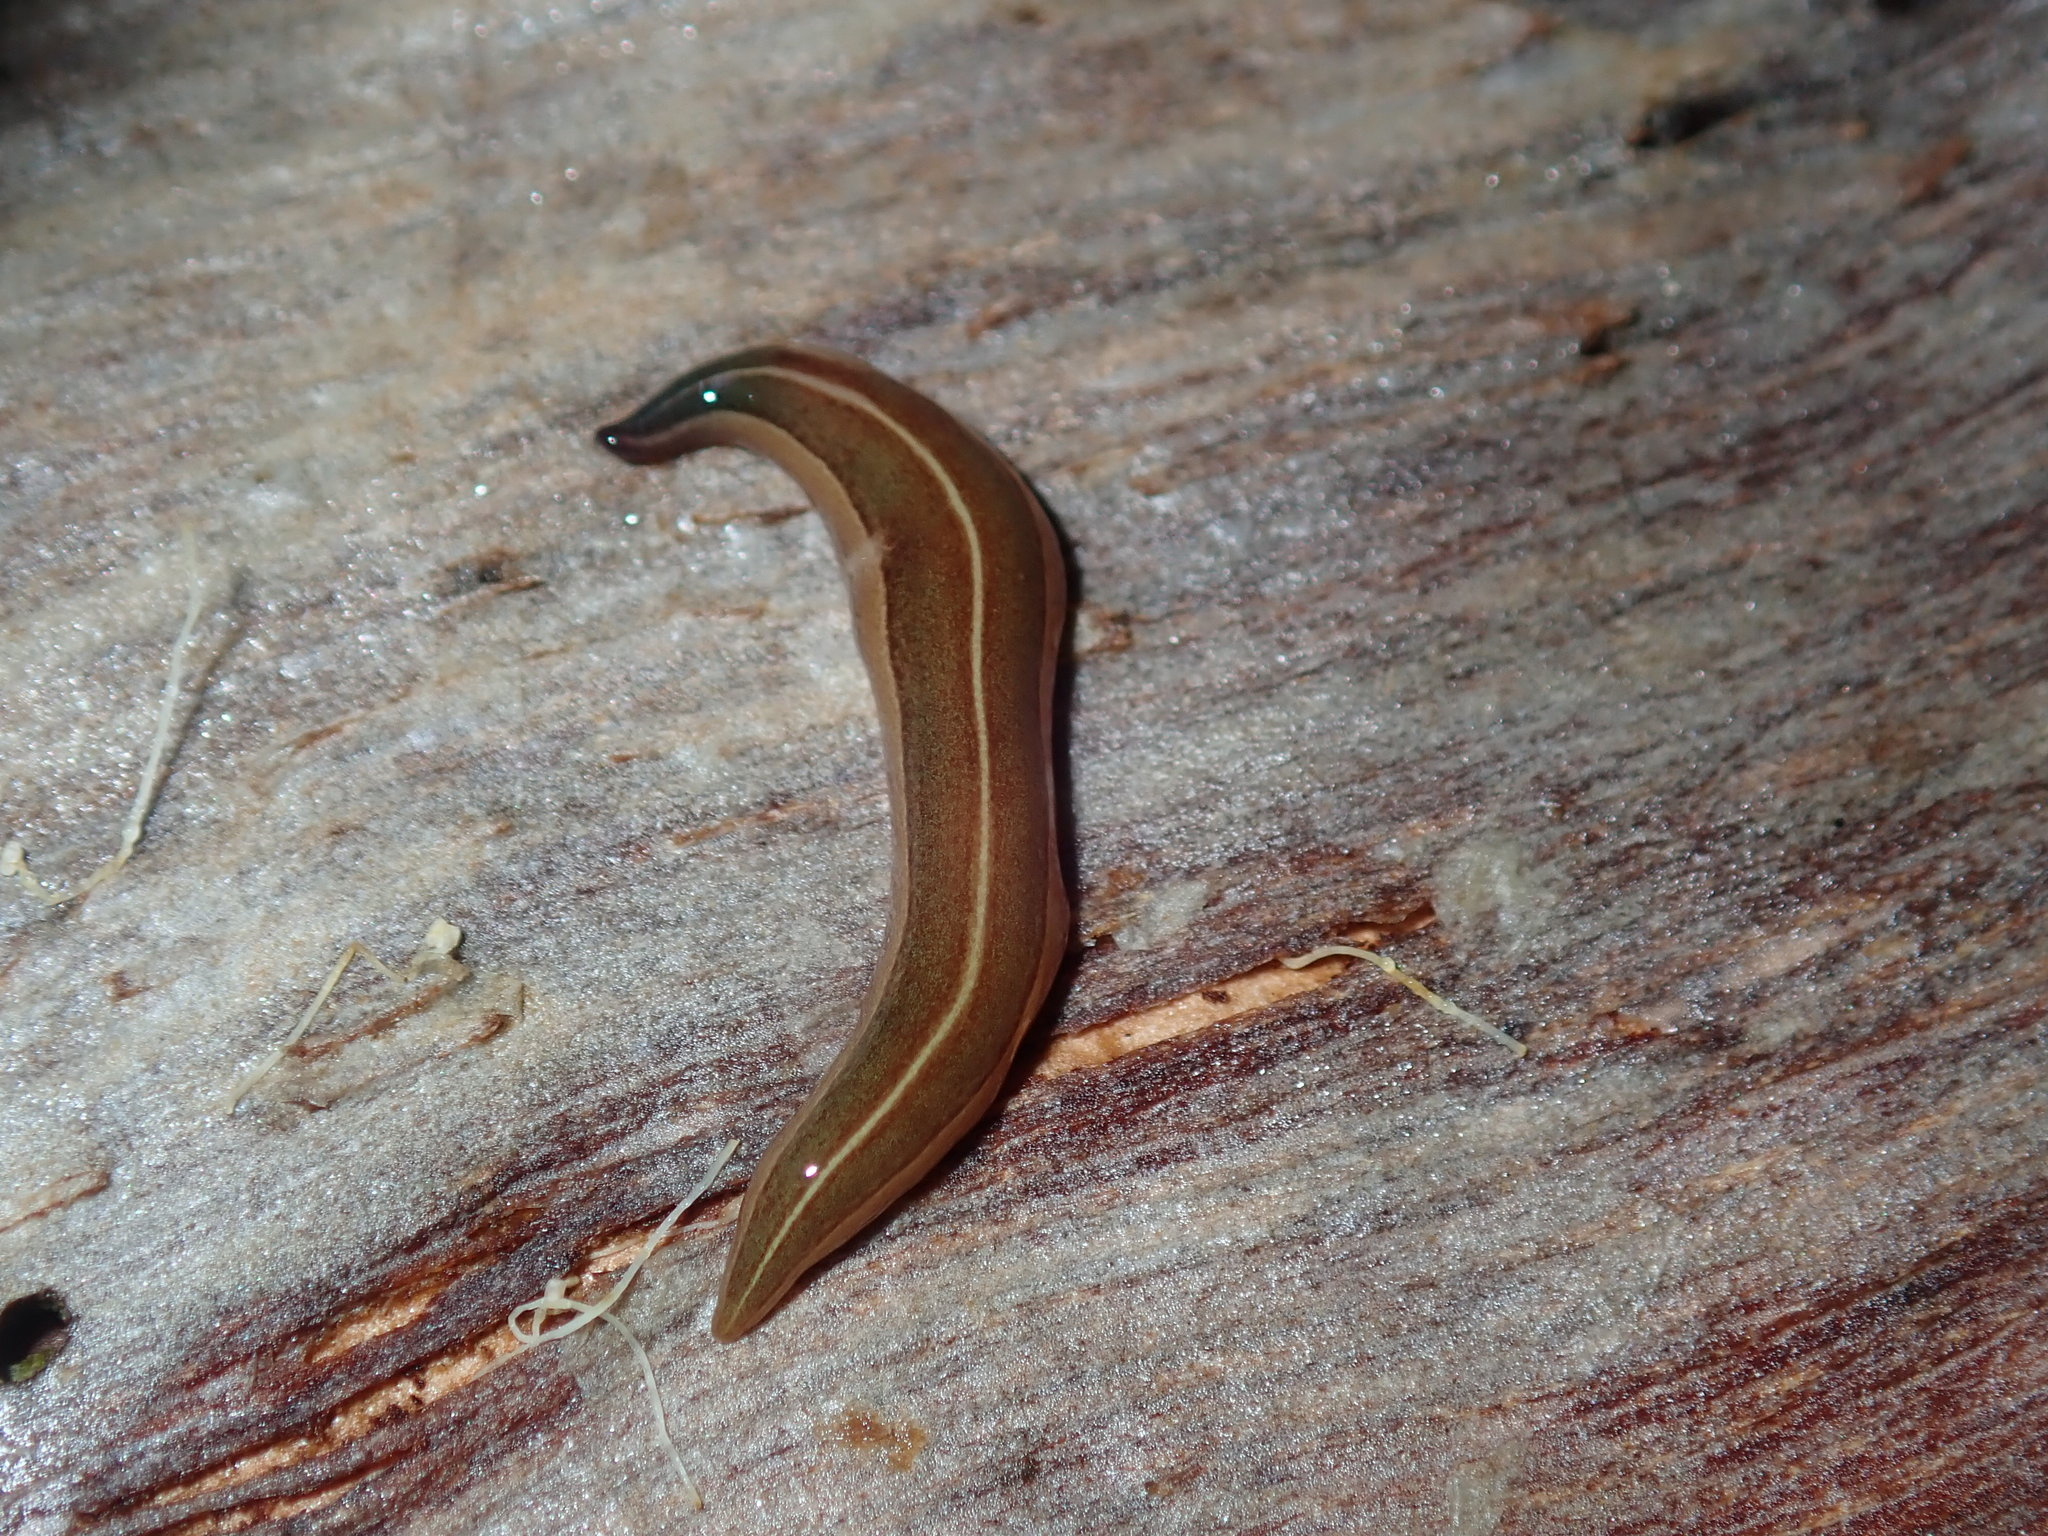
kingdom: Animalia
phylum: Platyhelminthes
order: Tricladida
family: Geoplanidae
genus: Australopacifica
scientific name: Australopacifica scaphoidea
